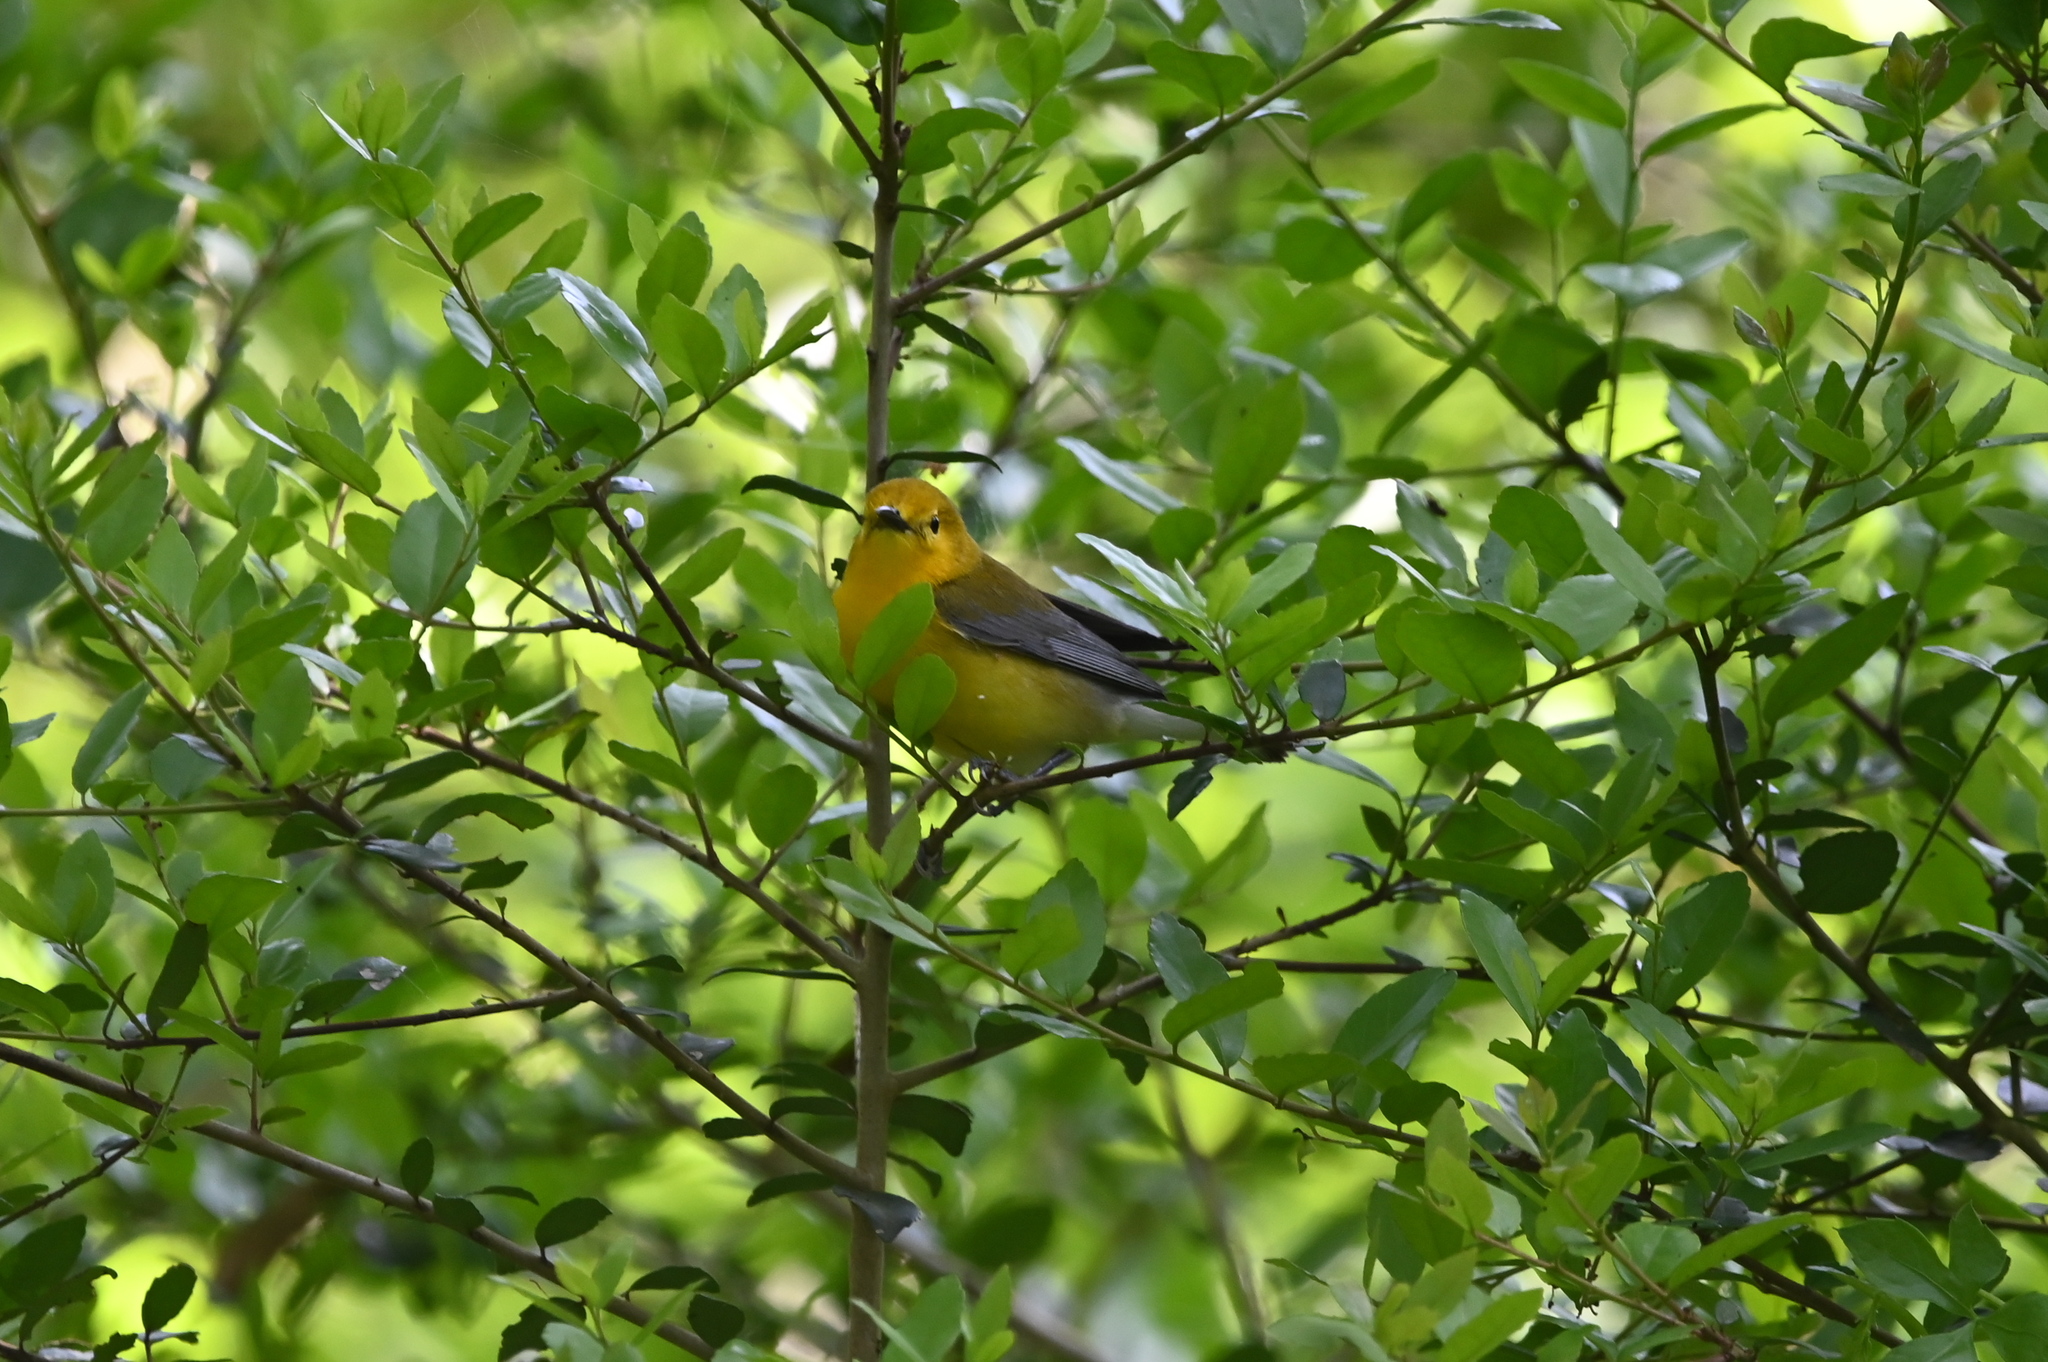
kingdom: Animalia
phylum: Chordata
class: Aves
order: Passeriformes
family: Parulidae
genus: Protonotaria
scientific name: Protonotaria citrea
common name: Prothonotary warbler
